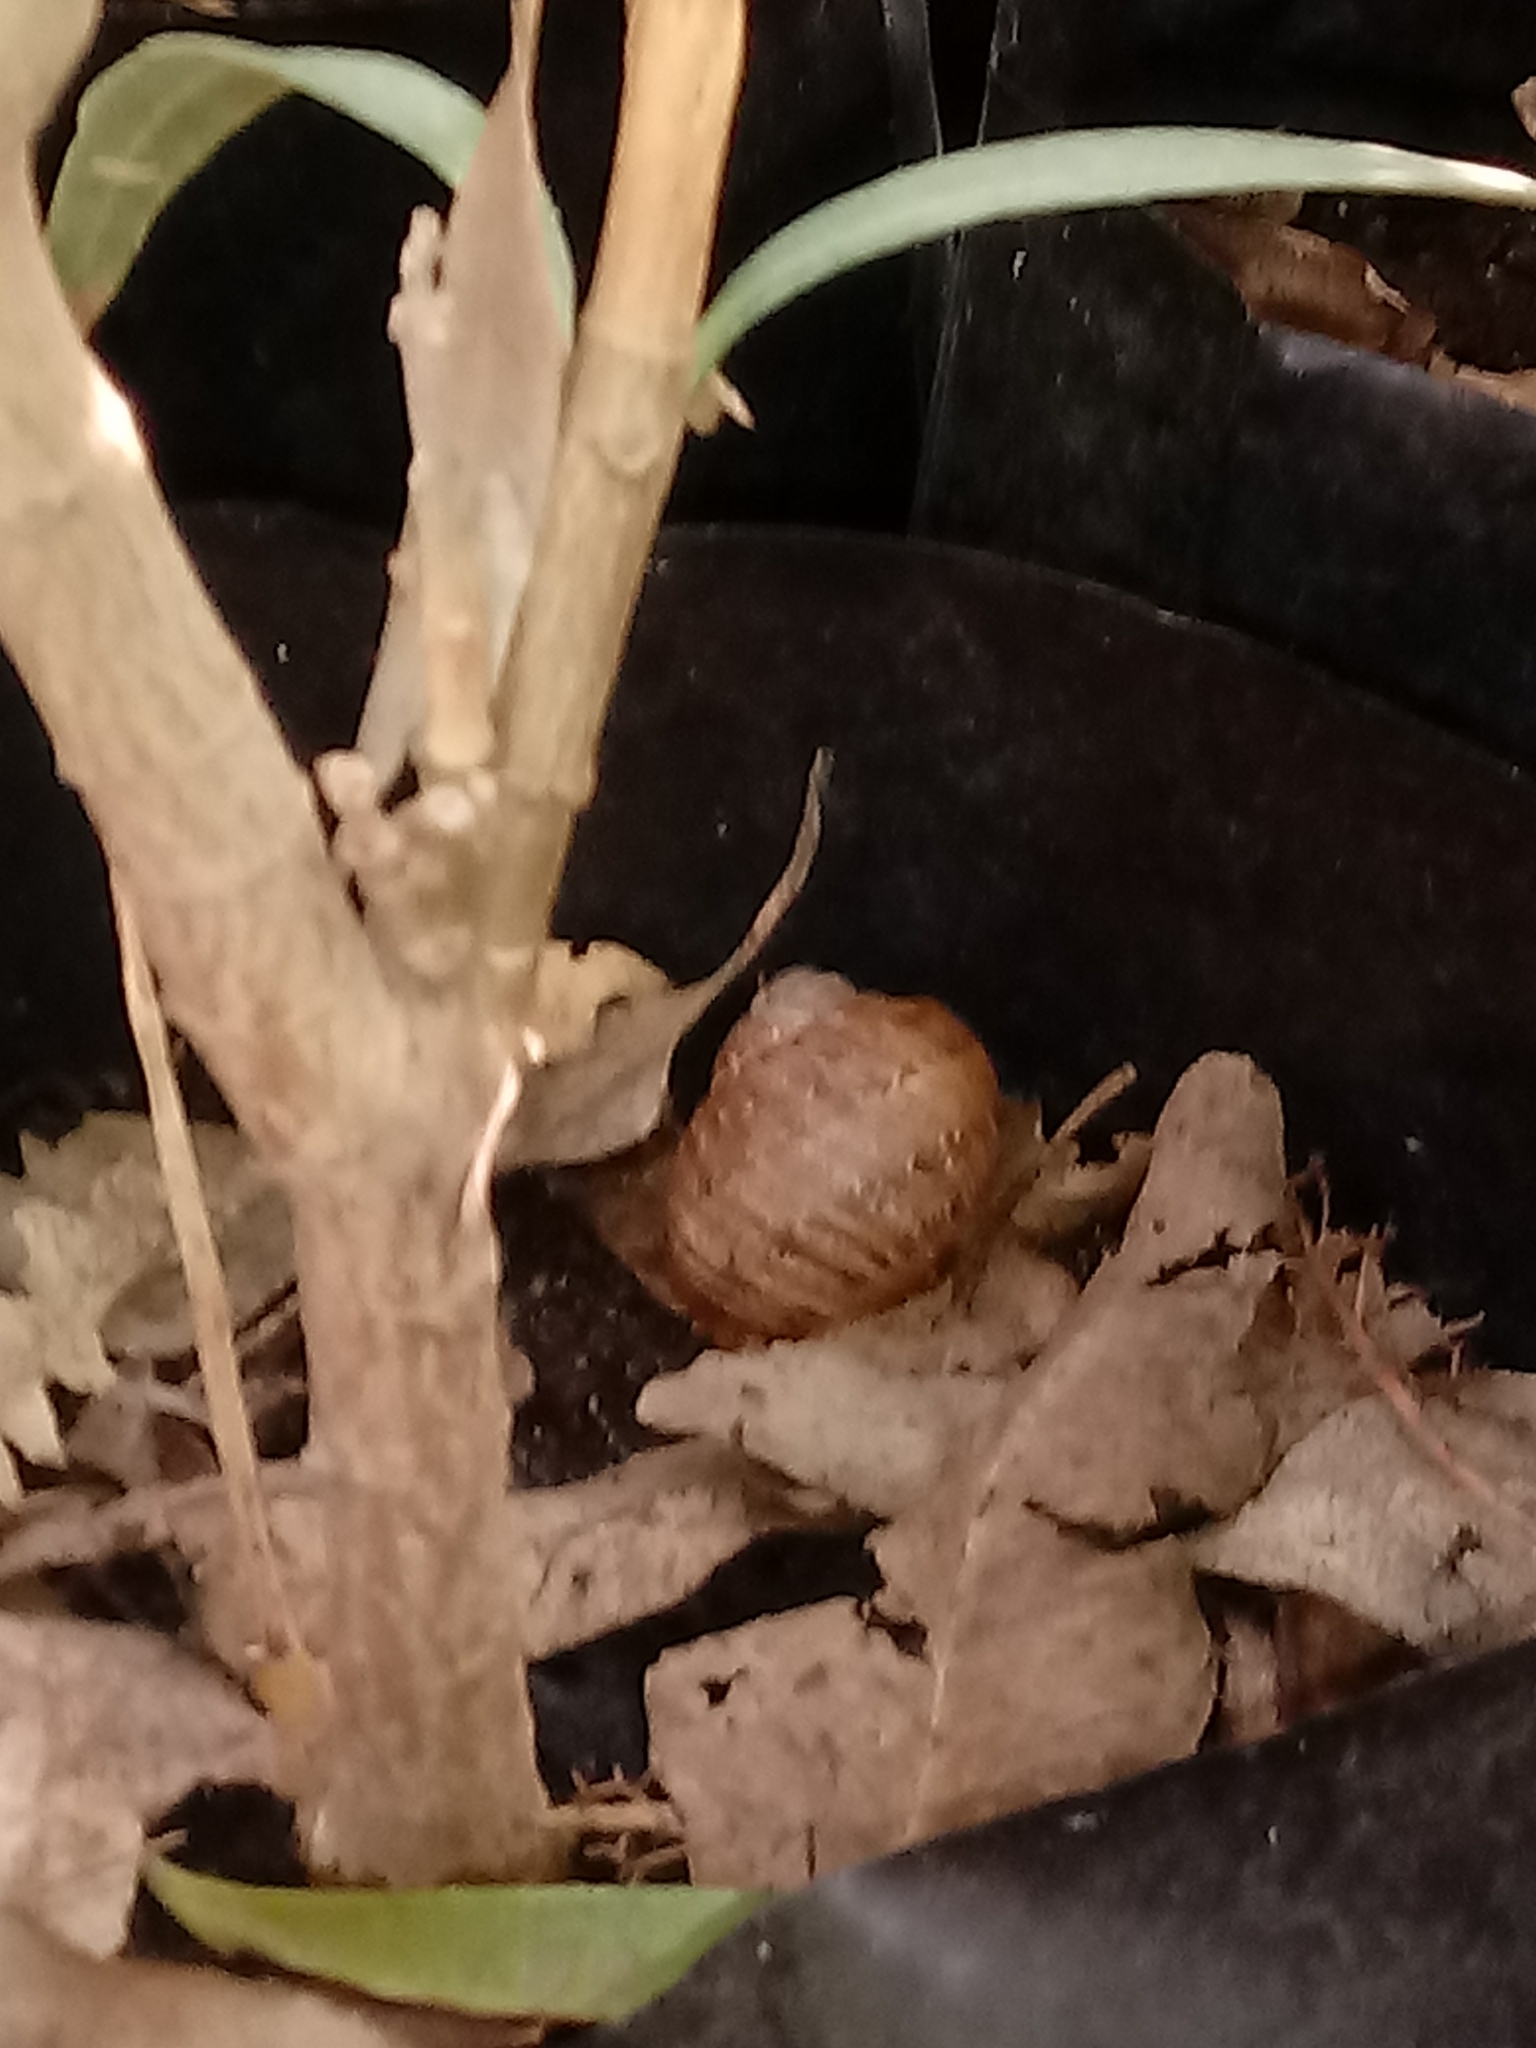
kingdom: Animalia
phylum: Mollusca
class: Gastropoda
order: Stylommatophora
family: Helicidae
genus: Cornu
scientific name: Cornu aspersum
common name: Brown garden snail
